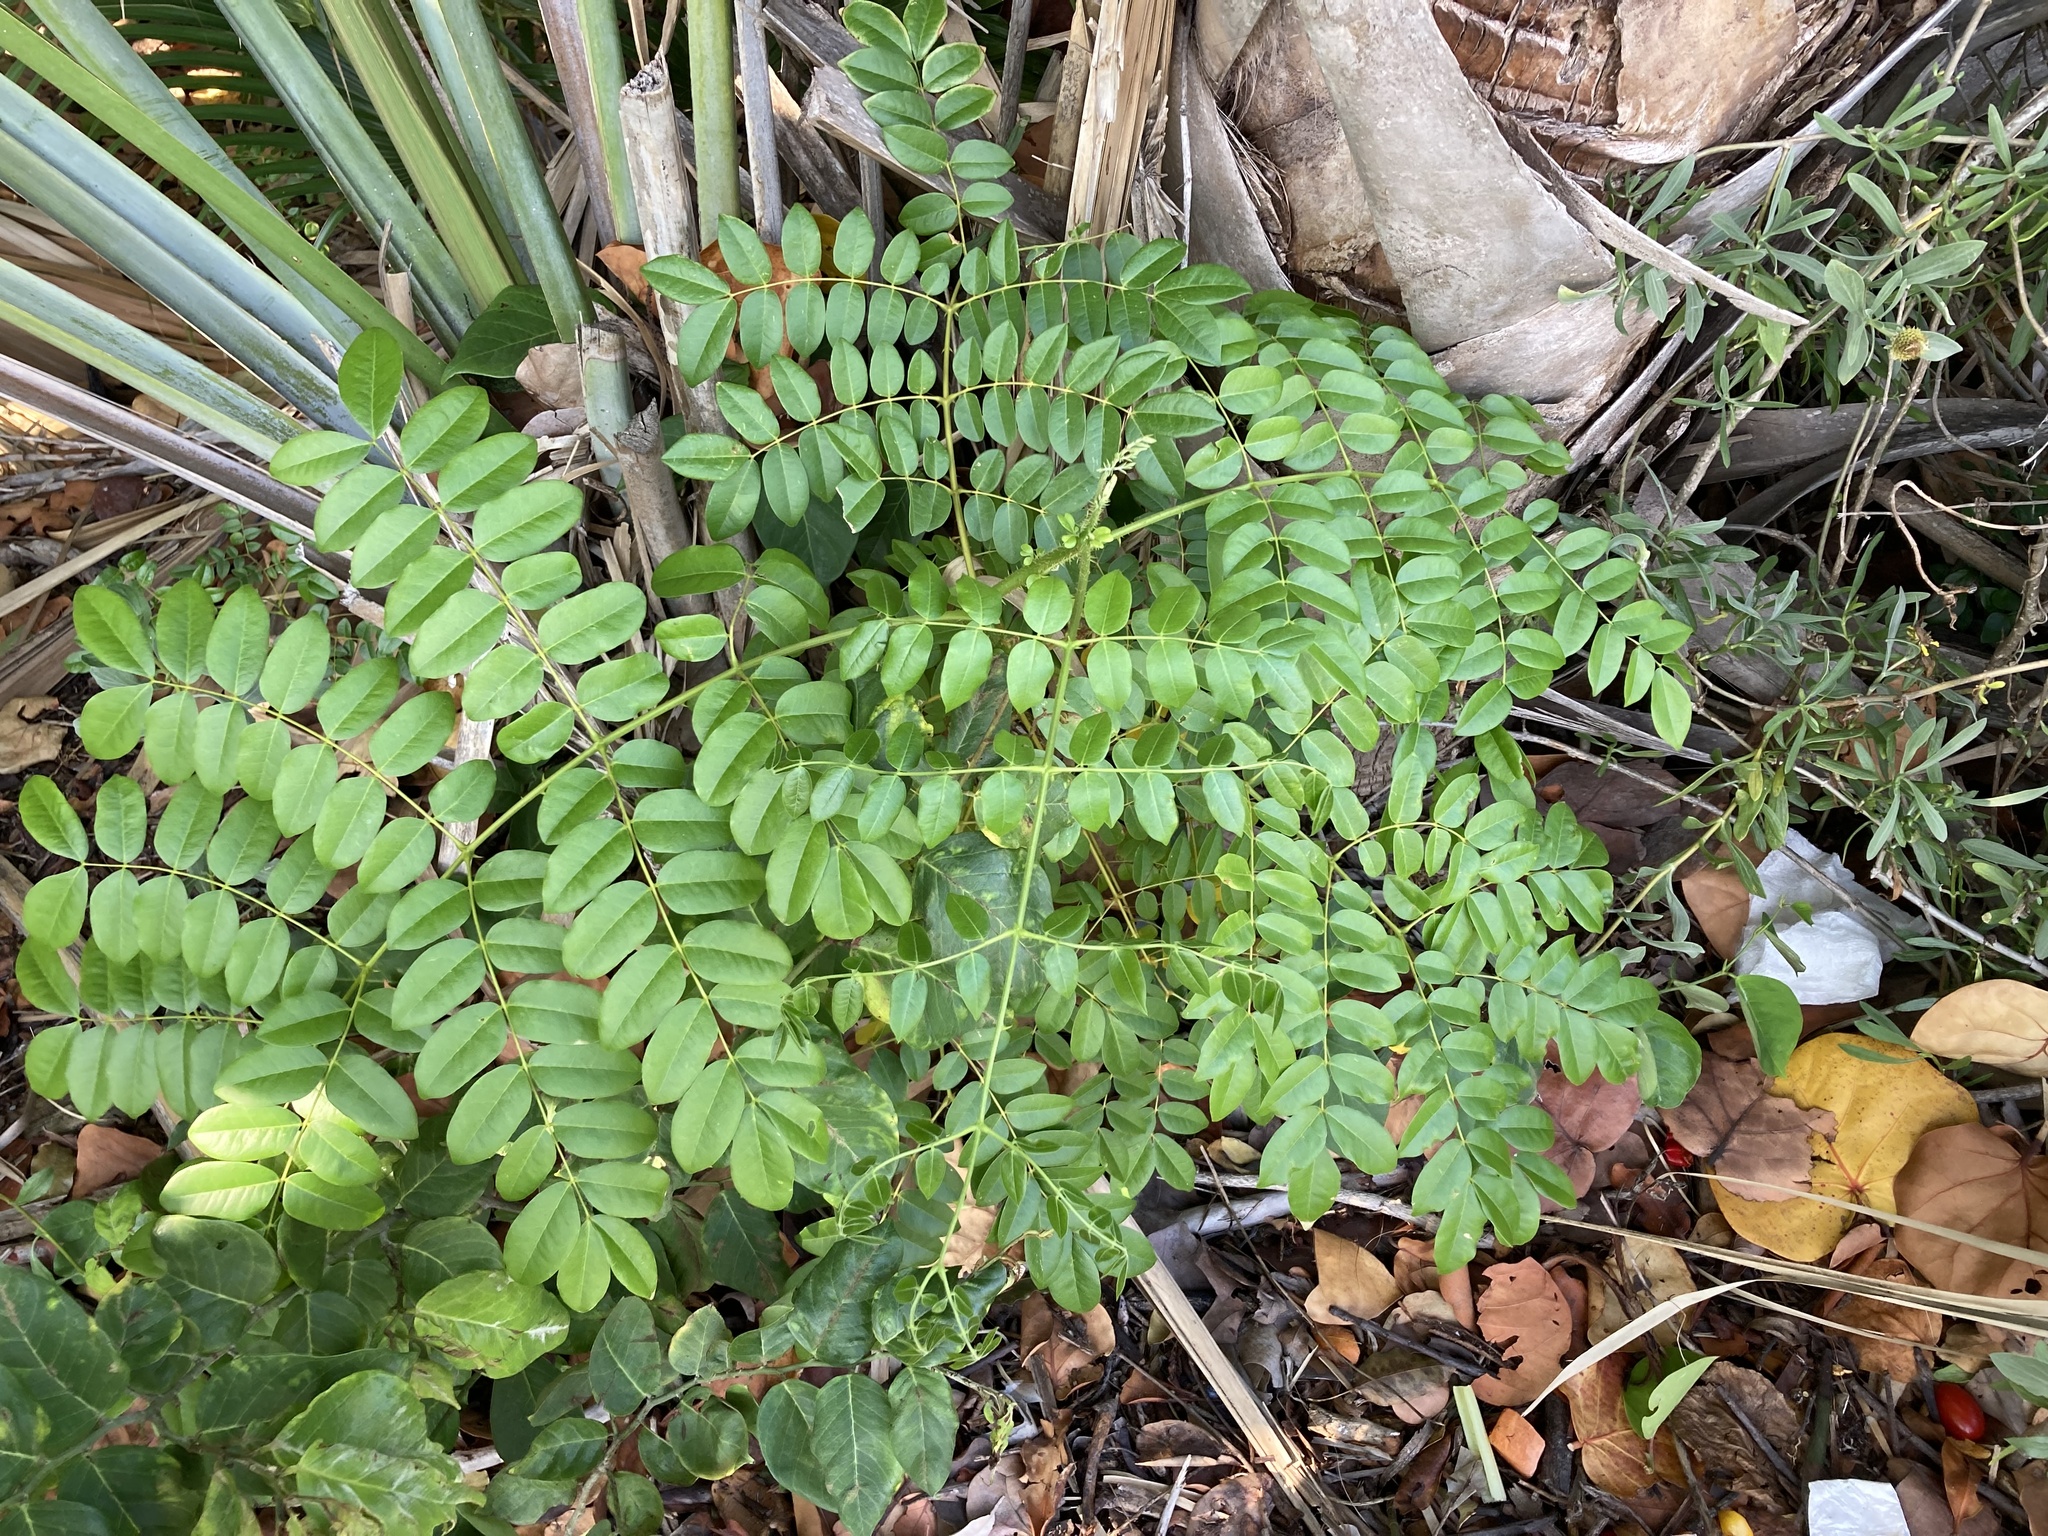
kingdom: Plantae
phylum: Tracheophyta
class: Magnoliopsida
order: Fabales
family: Fabaceae
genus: Guilandina
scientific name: Guilandina bonduc
